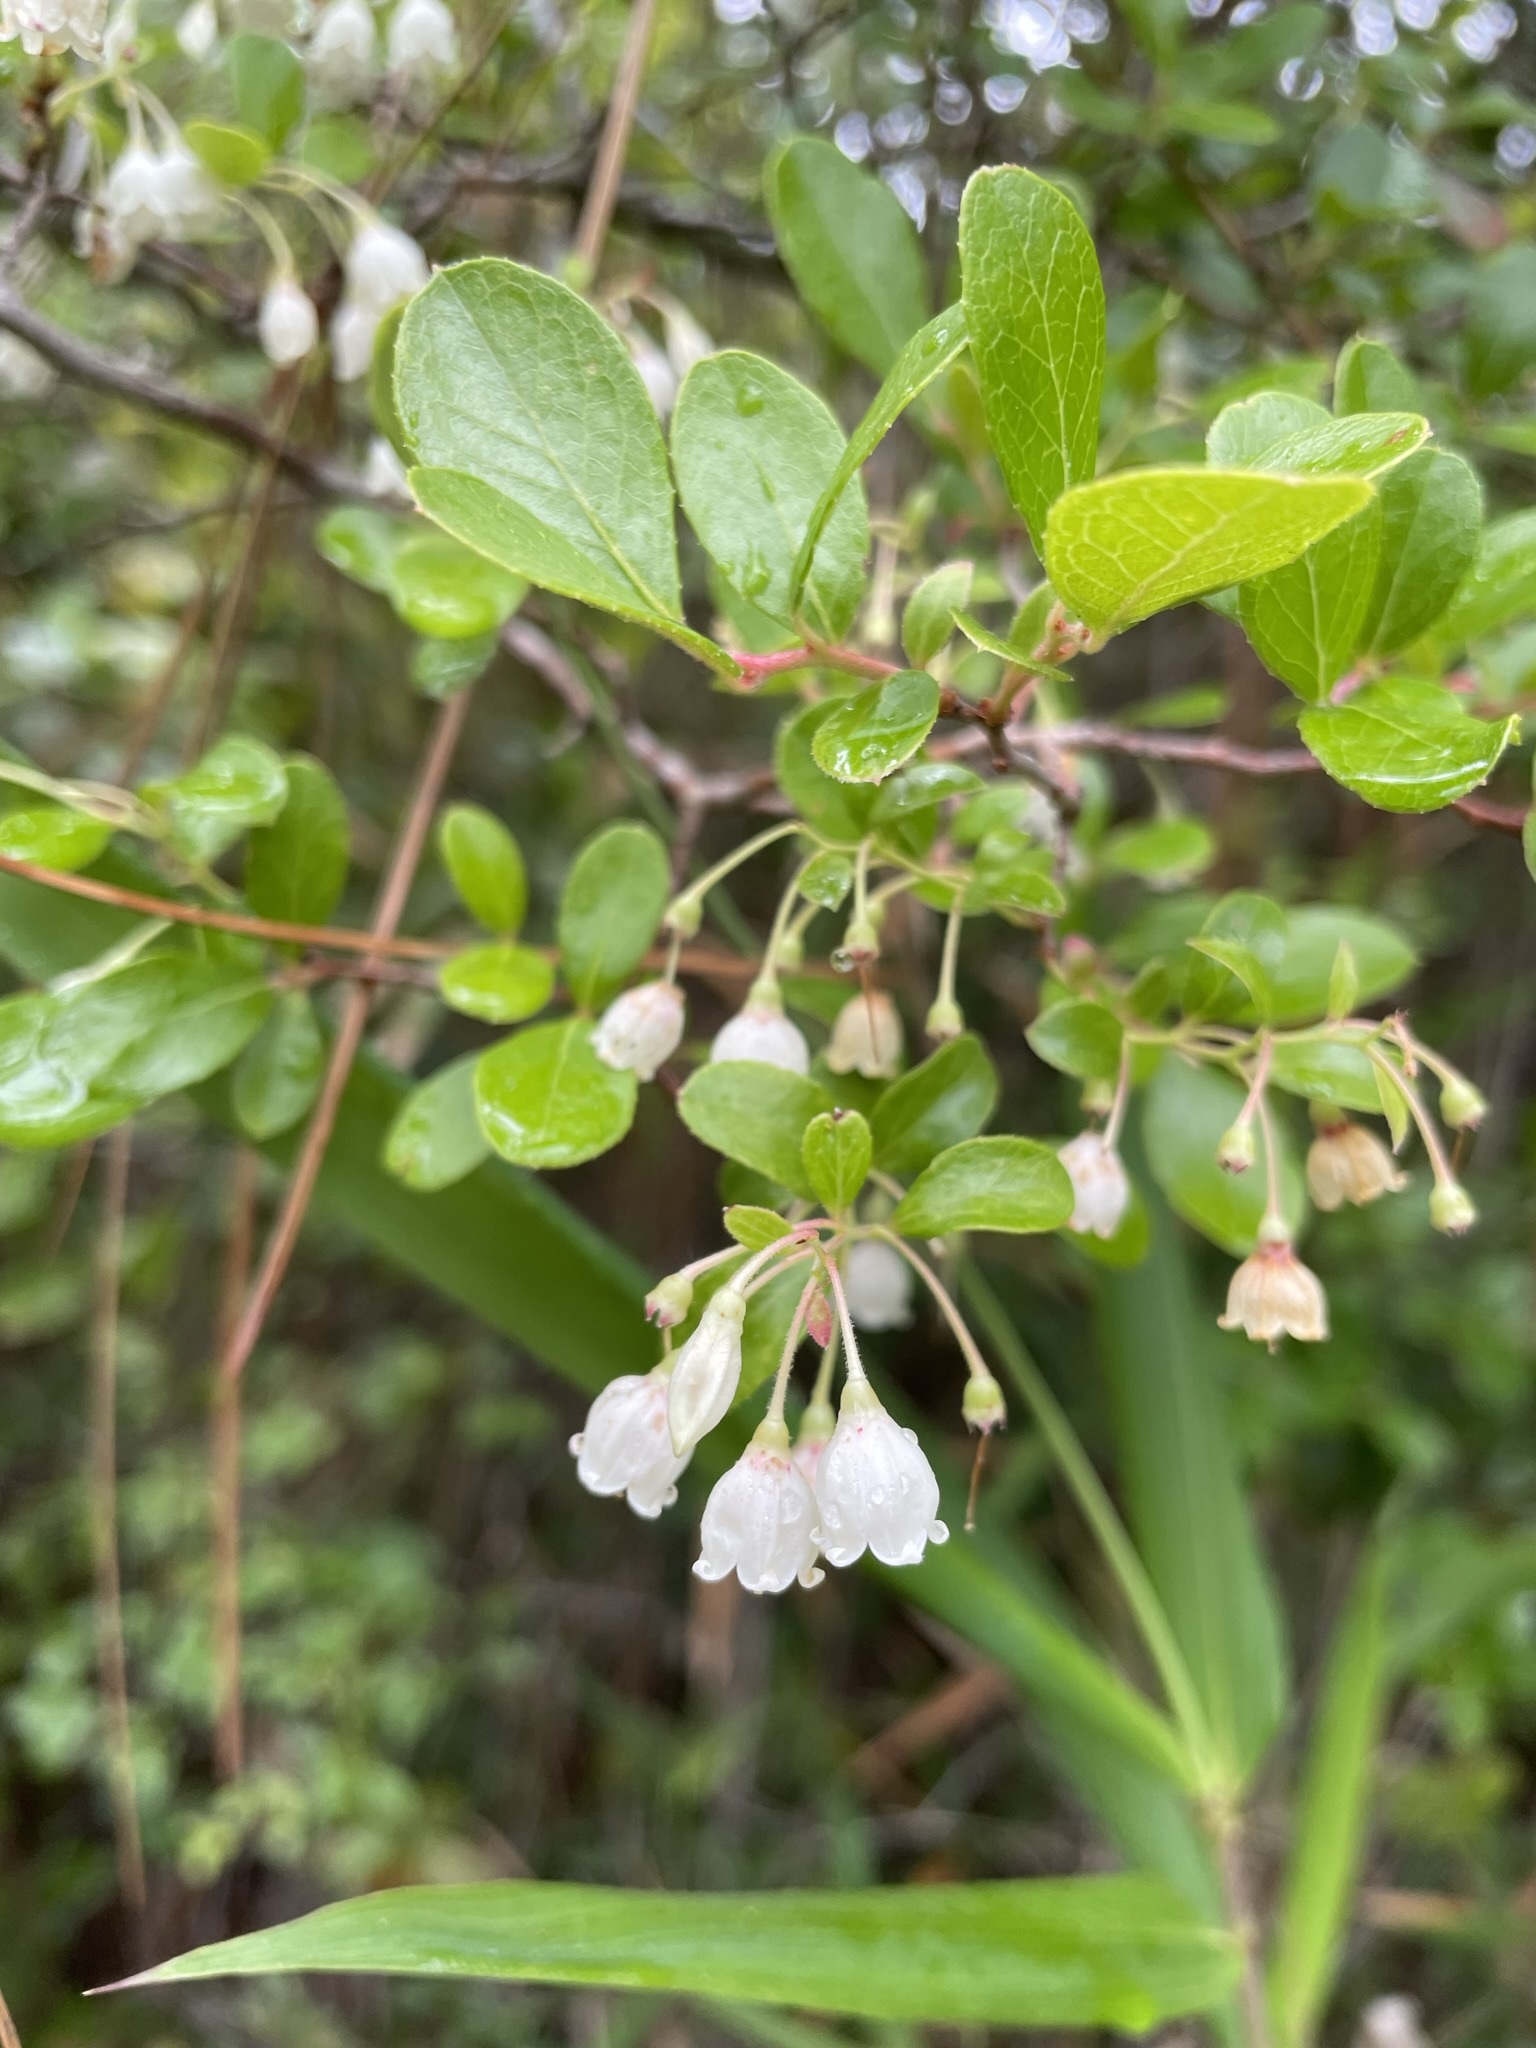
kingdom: Plantae
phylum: Tracheophyta
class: Magnoliopsida
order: Ericales
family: Ericaceae
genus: Vaccinium
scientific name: Vaccinium arboreum
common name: Farkleberry
